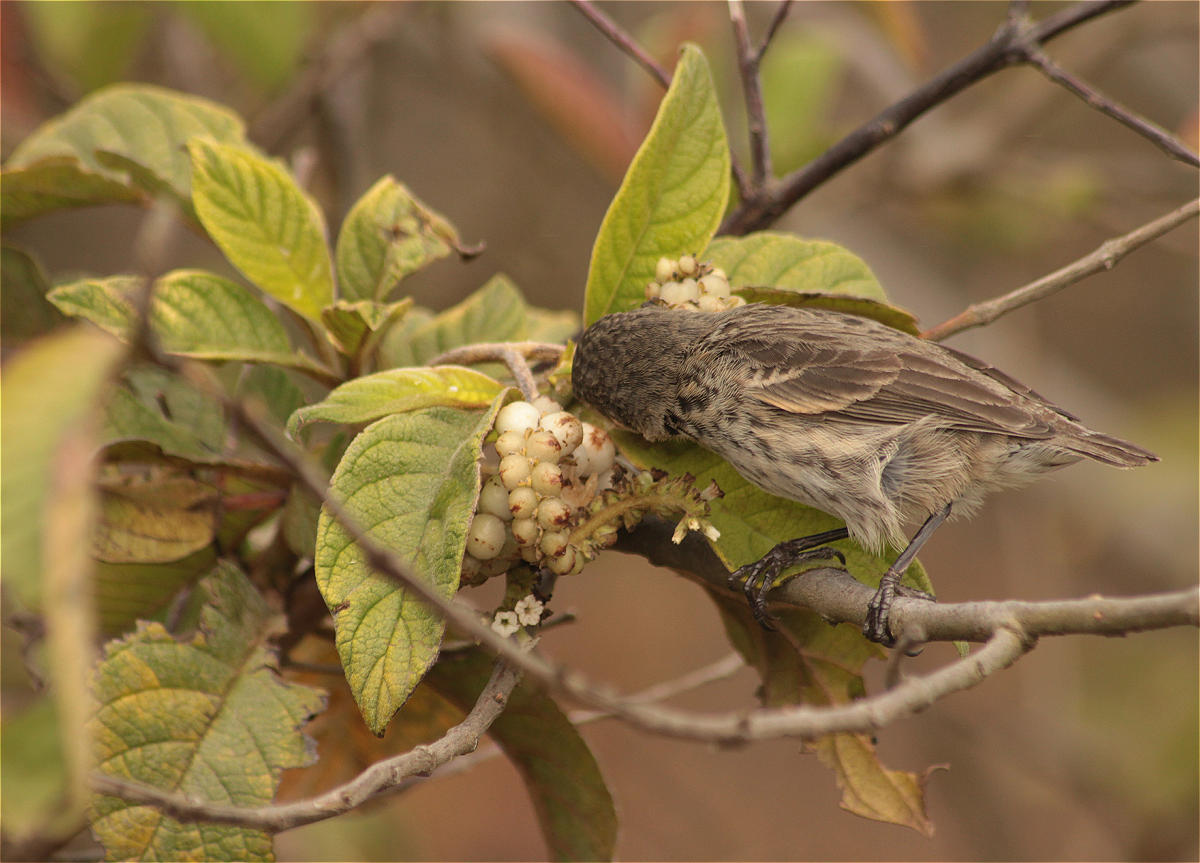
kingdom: Plantae
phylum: Tracheophyta
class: Magnoliopsida
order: Boraginales
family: Heliotropiaceae
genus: Tournefortia
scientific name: Tournefortia pubescens
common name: White-haired tournefortia
